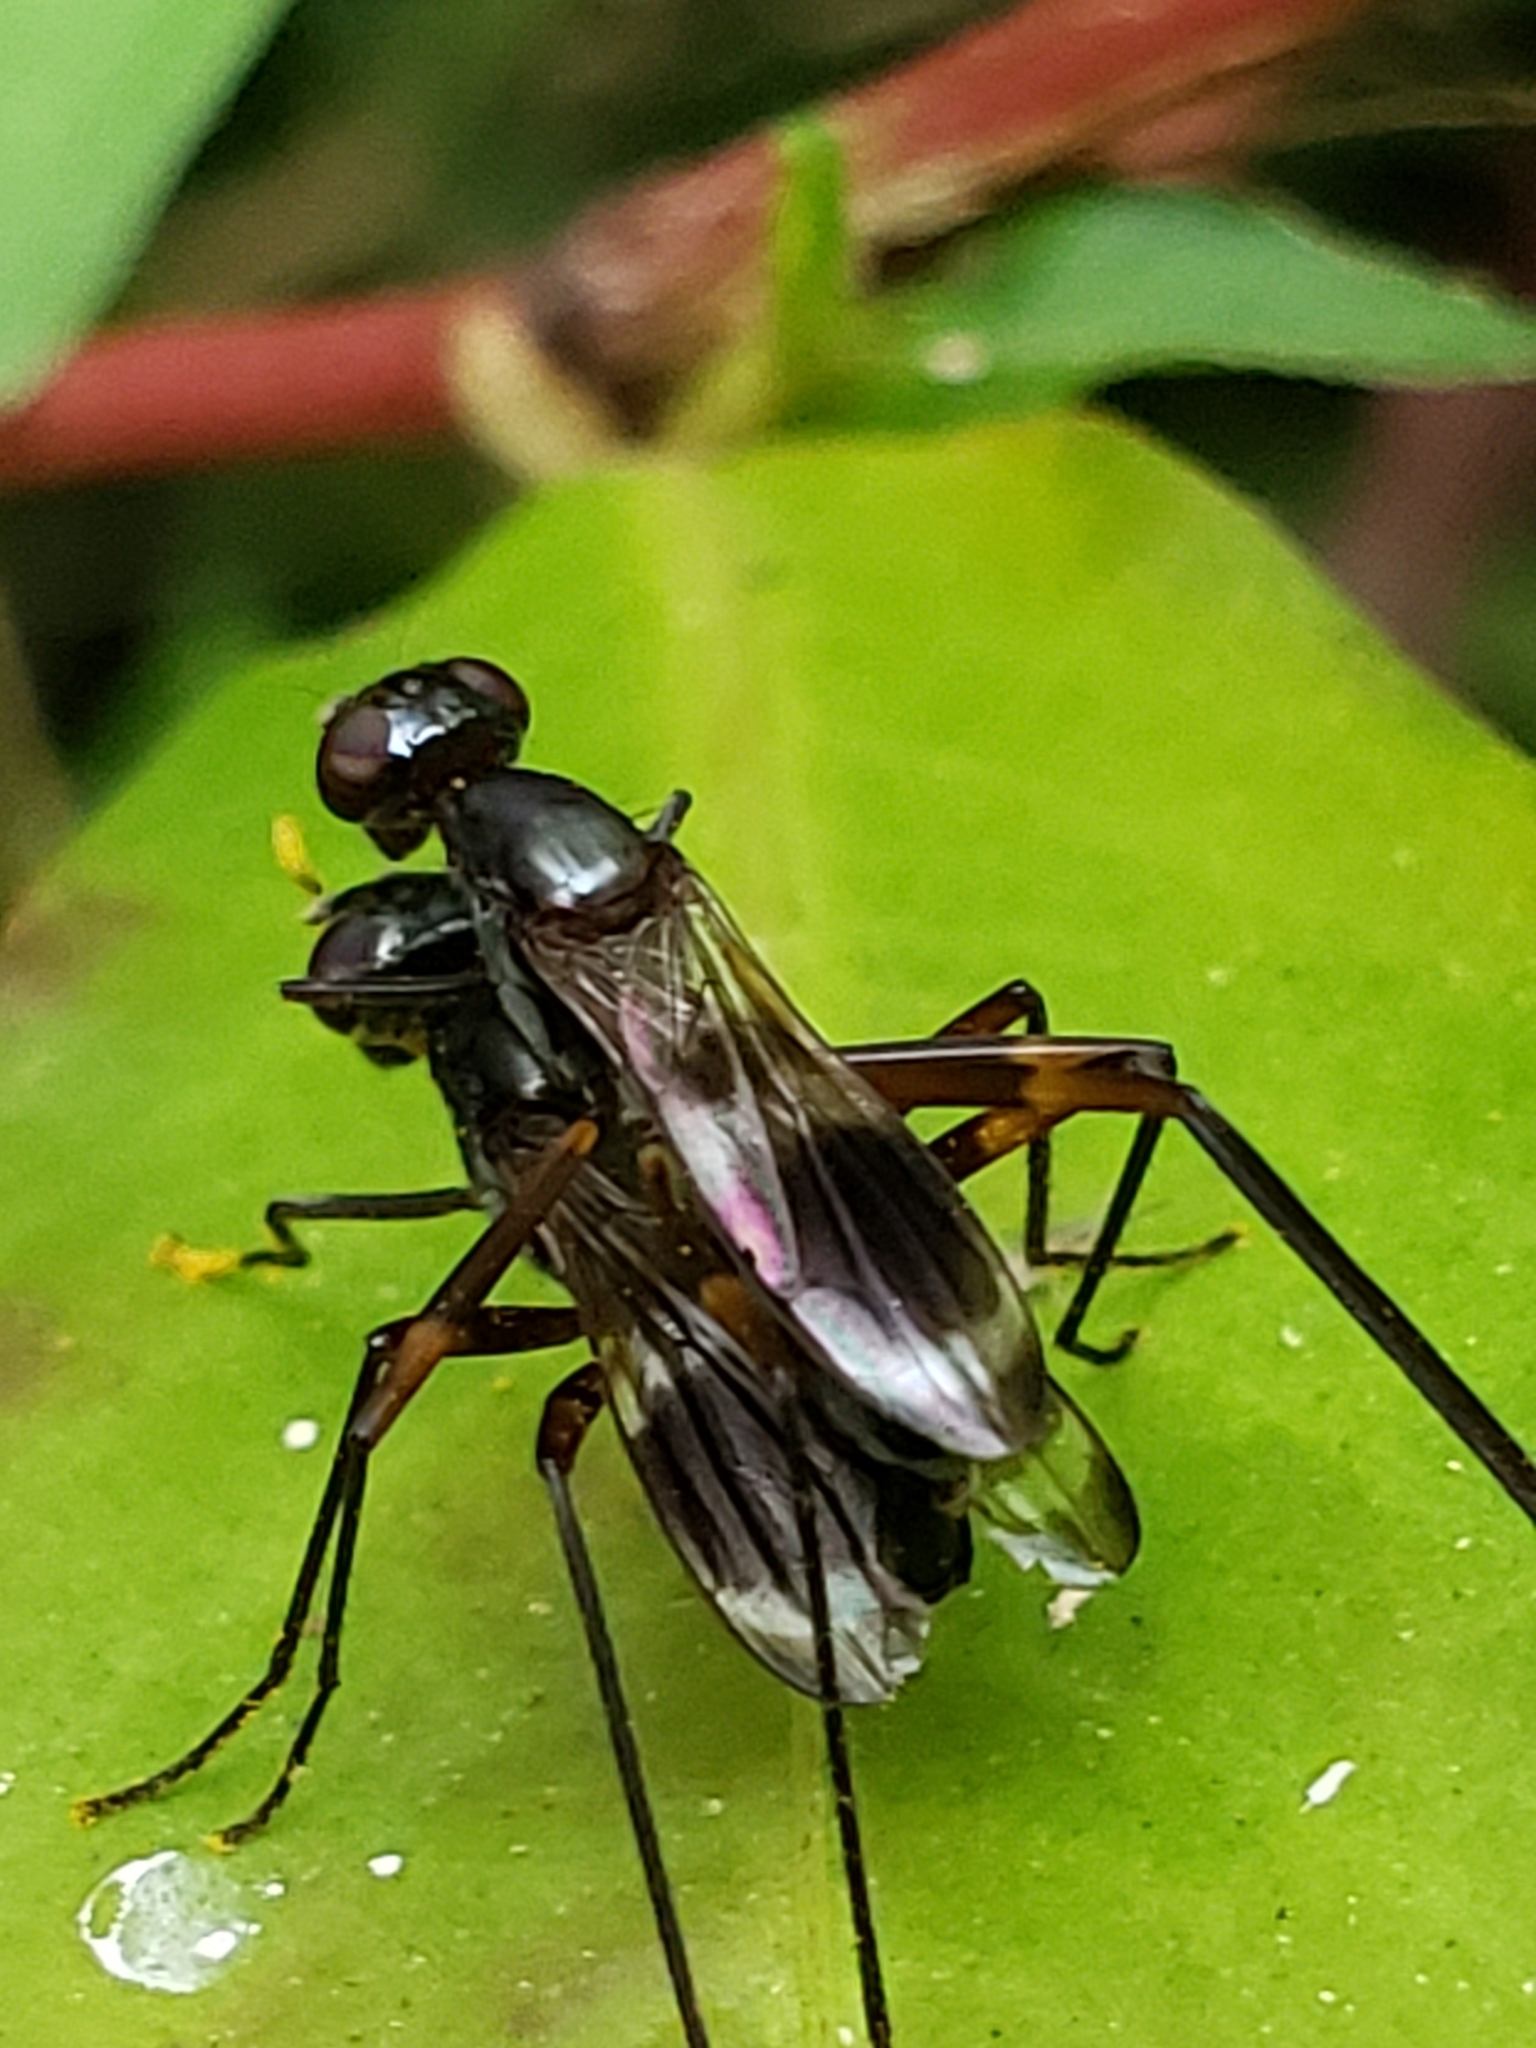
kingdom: Animalia
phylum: Arthropoda
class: Insecta
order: Diptera
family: Micropezidae
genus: Taeniaptera
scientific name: Taeniaptera trivittata
